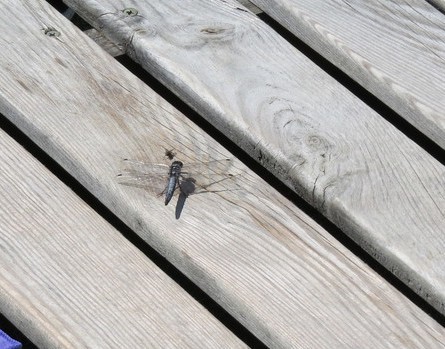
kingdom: Animalia
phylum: Arthropoda
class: Insecta
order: Odonata
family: Libellulidae
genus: Orthetrum
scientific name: Orthetrum cancellatum
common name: Black-tailed skimmer
